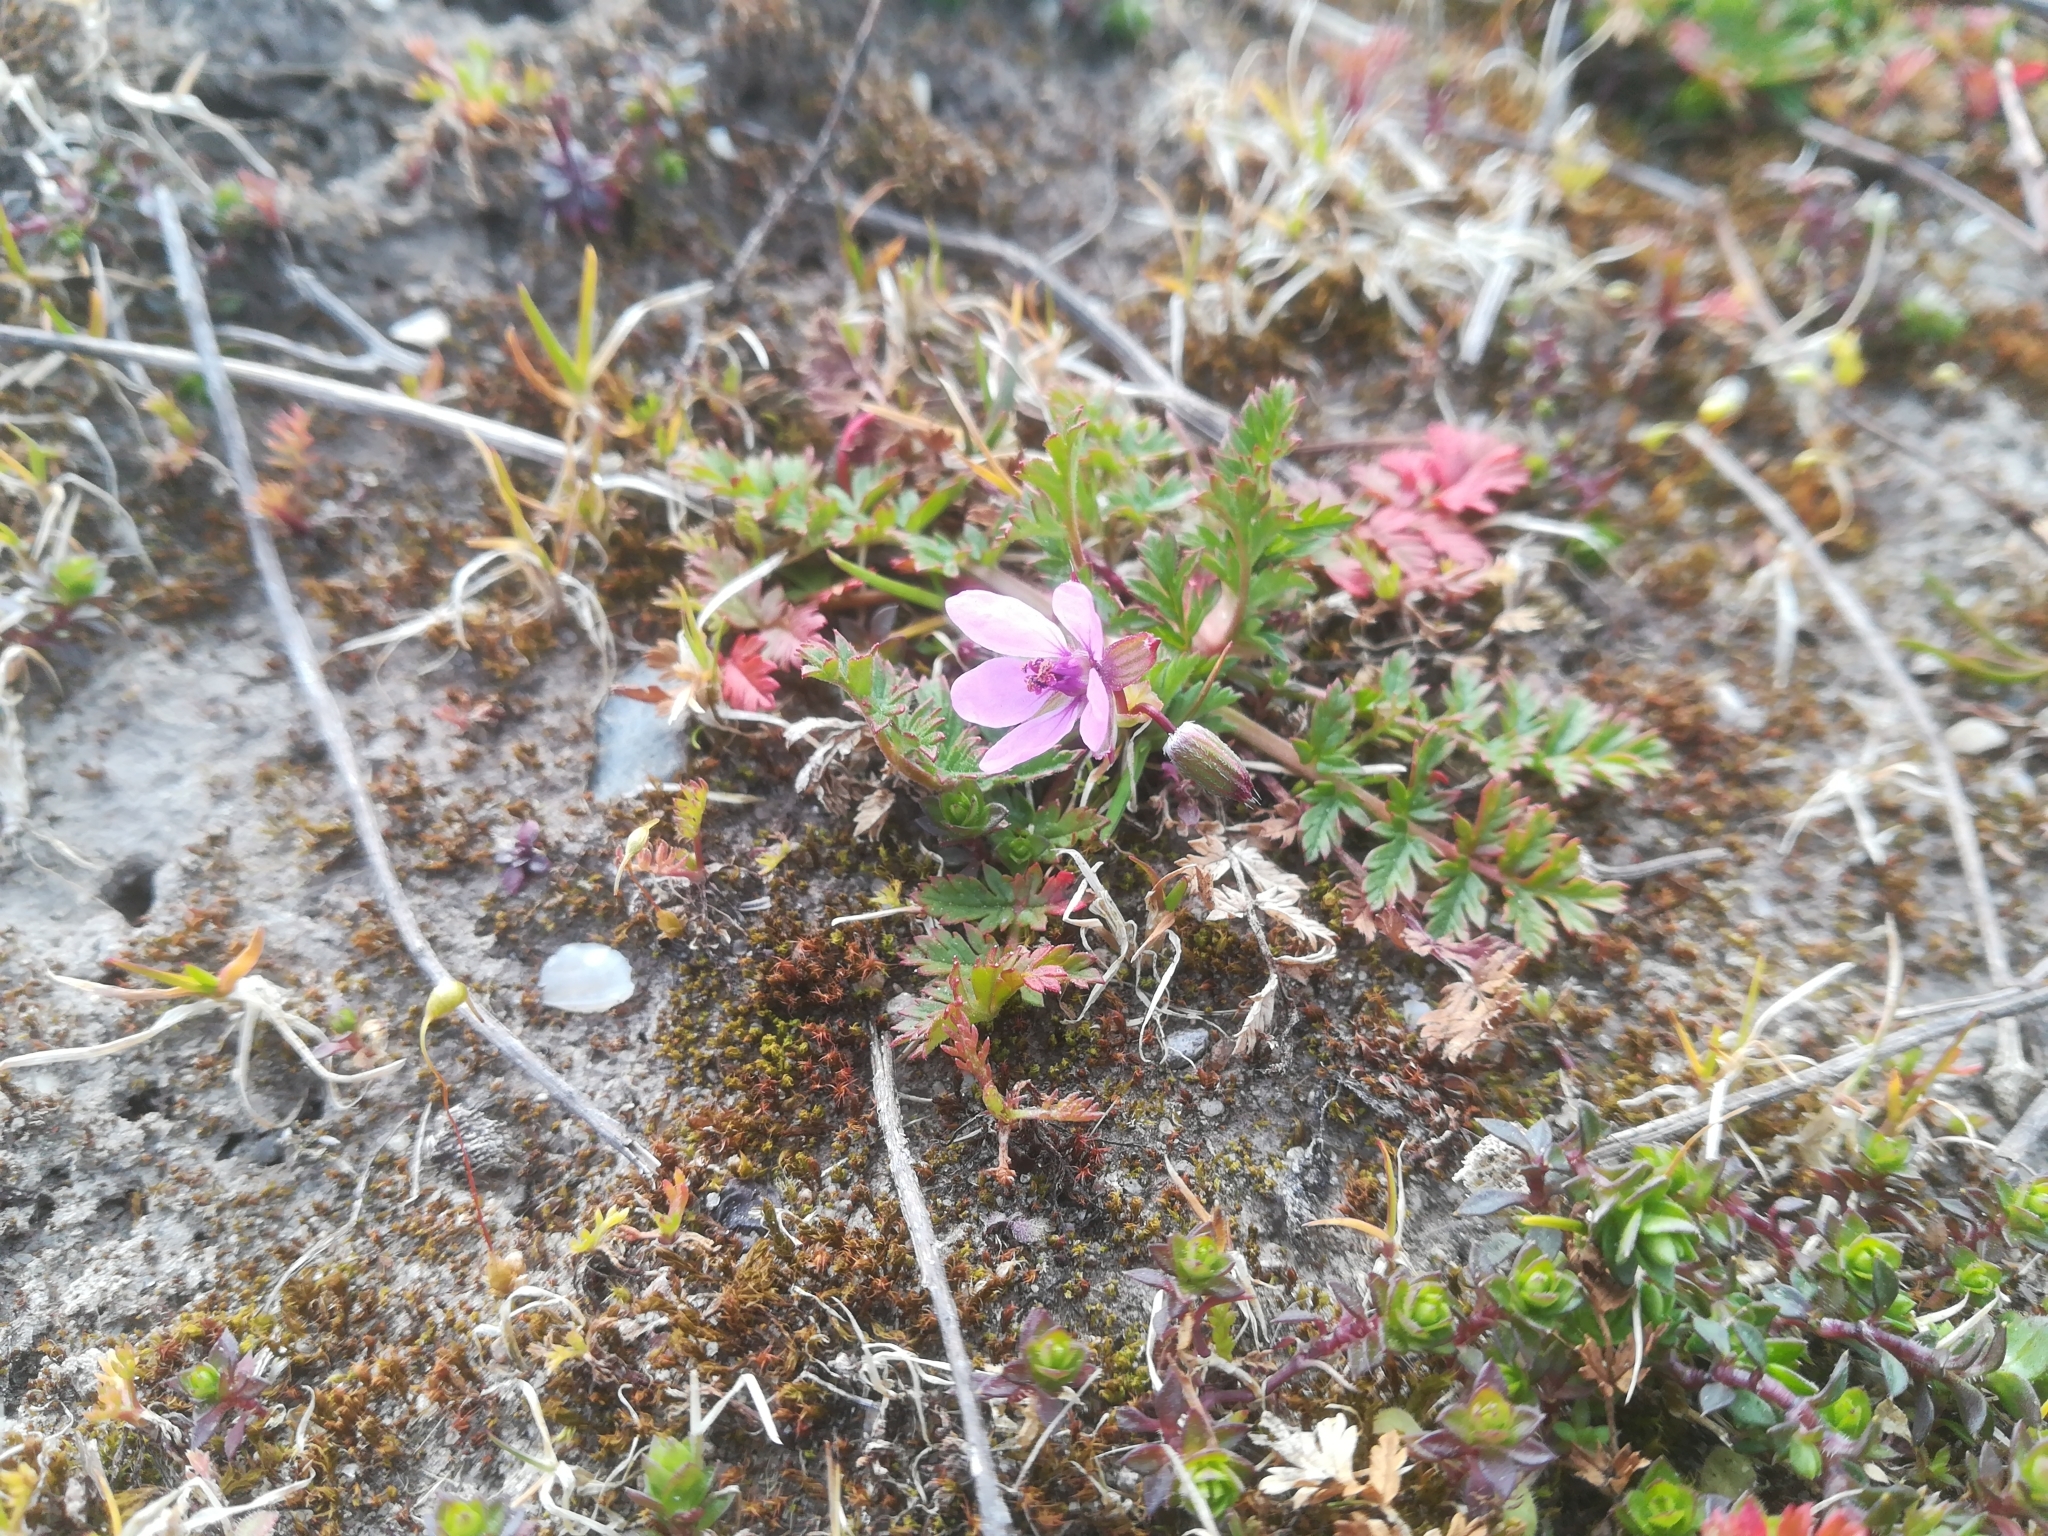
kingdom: Plantae
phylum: Tracheophyta
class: Magnoliopsida
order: Geraniales
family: Geraniaceae
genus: Erodium
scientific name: Erodium cicutarium
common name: Common stork's-bill
